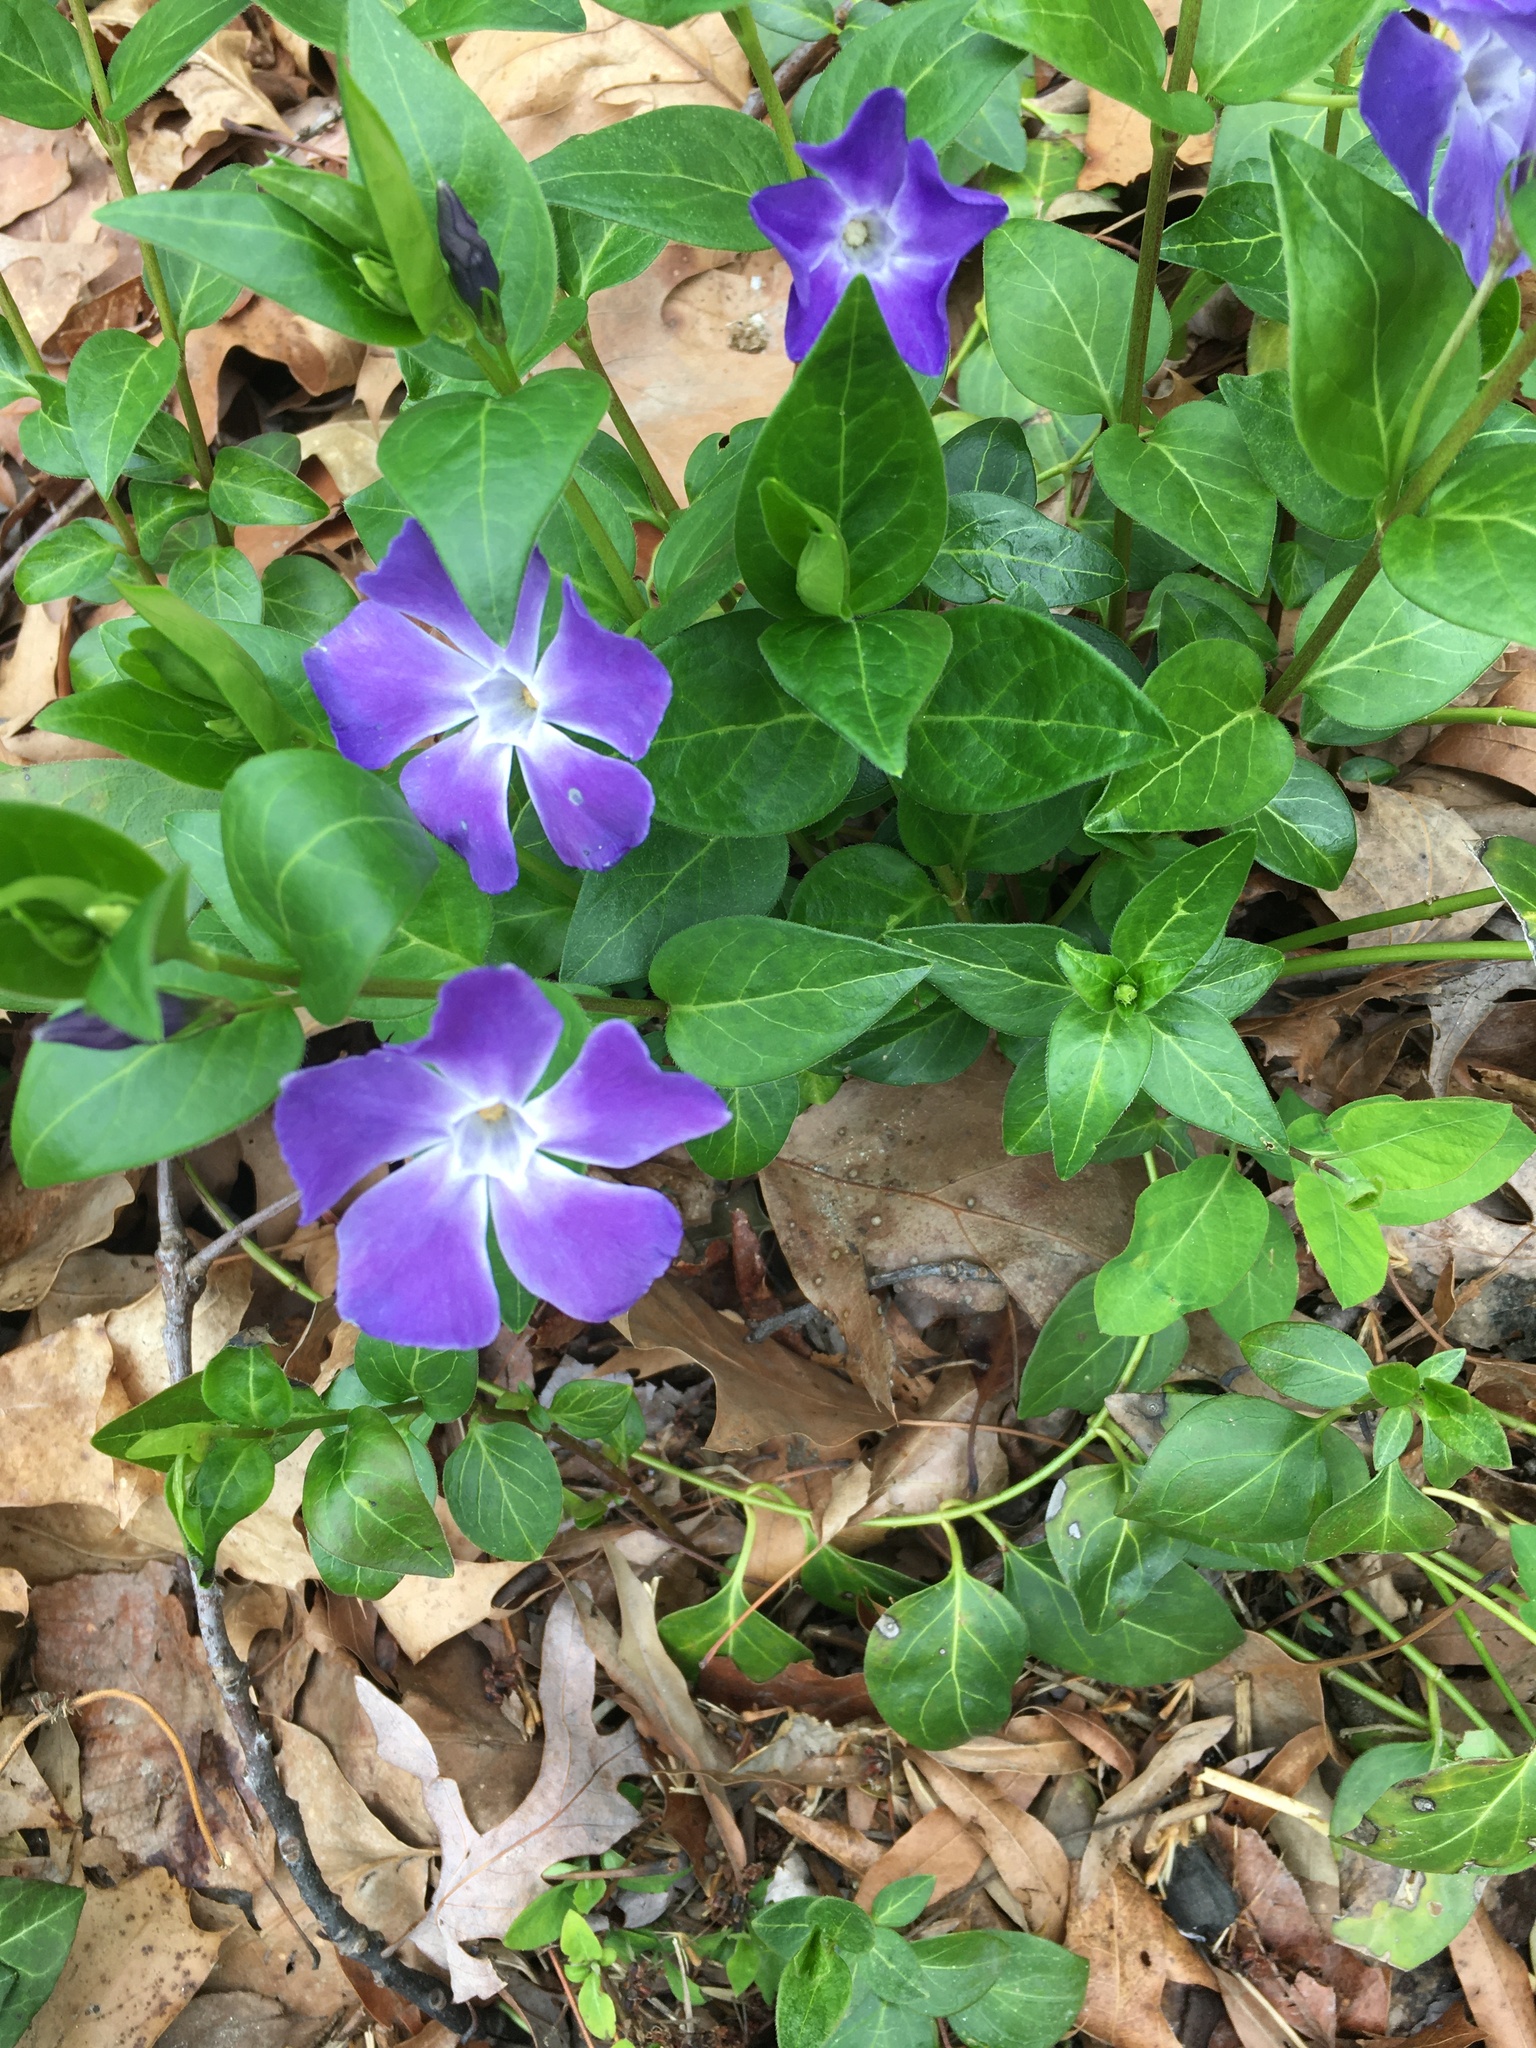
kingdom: Plantae
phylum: Tracheophyta
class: Magnoliopsida
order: Gentianales
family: Apocynaceae
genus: Vinca
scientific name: Vinca major
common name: Greater periwinkle
